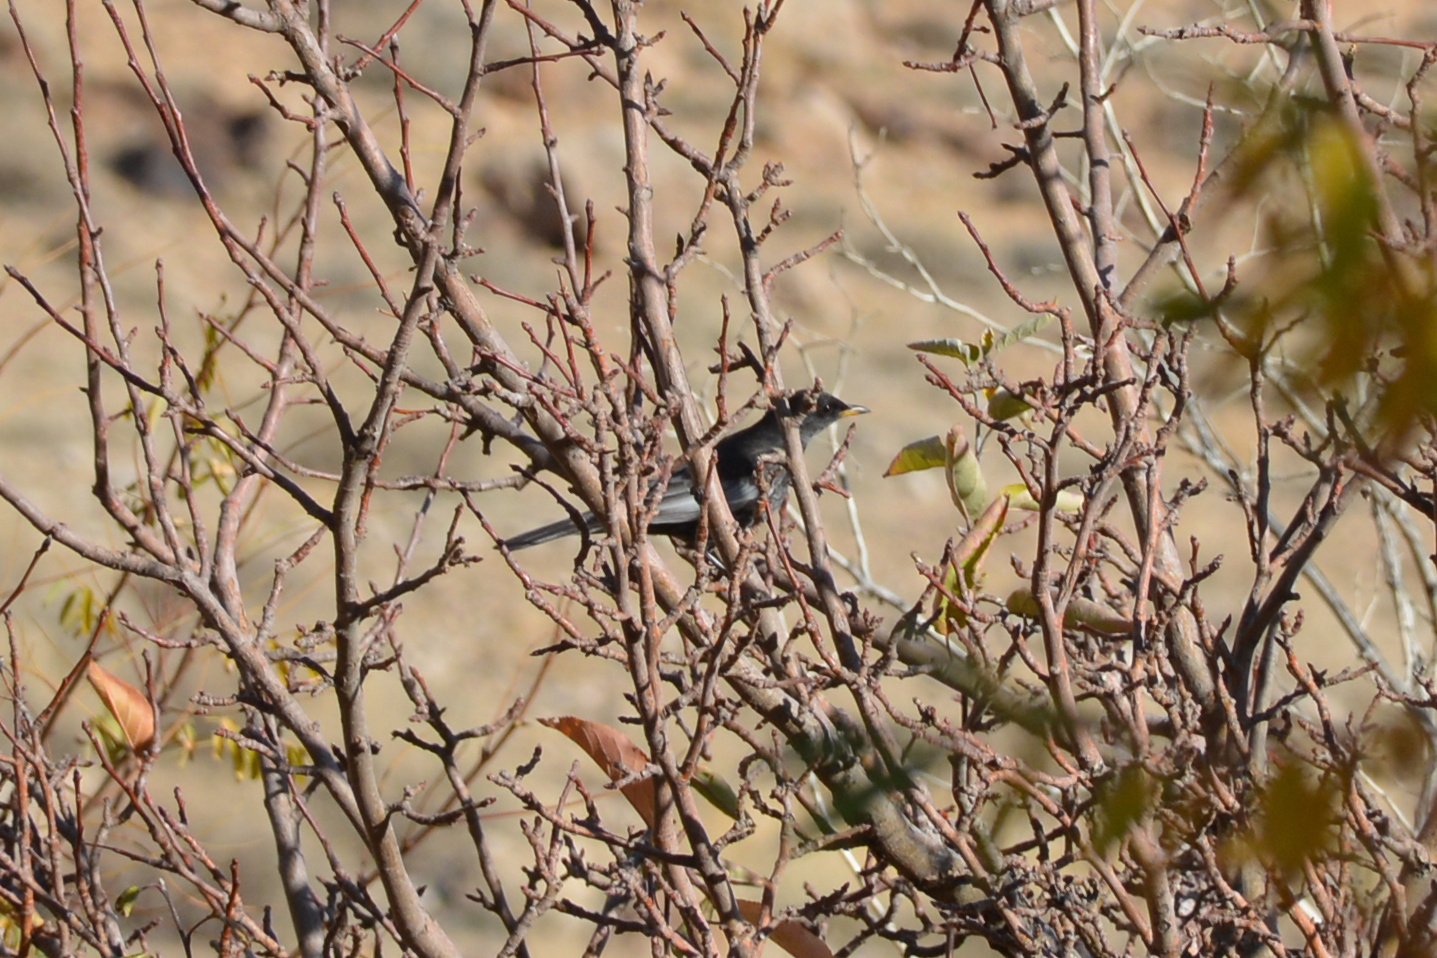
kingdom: Animalia
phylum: Chordata
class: Aves
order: Passeriformes
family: Turdidae
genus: Turdus
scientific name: Turdus torquatus
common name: Ring ouzel
